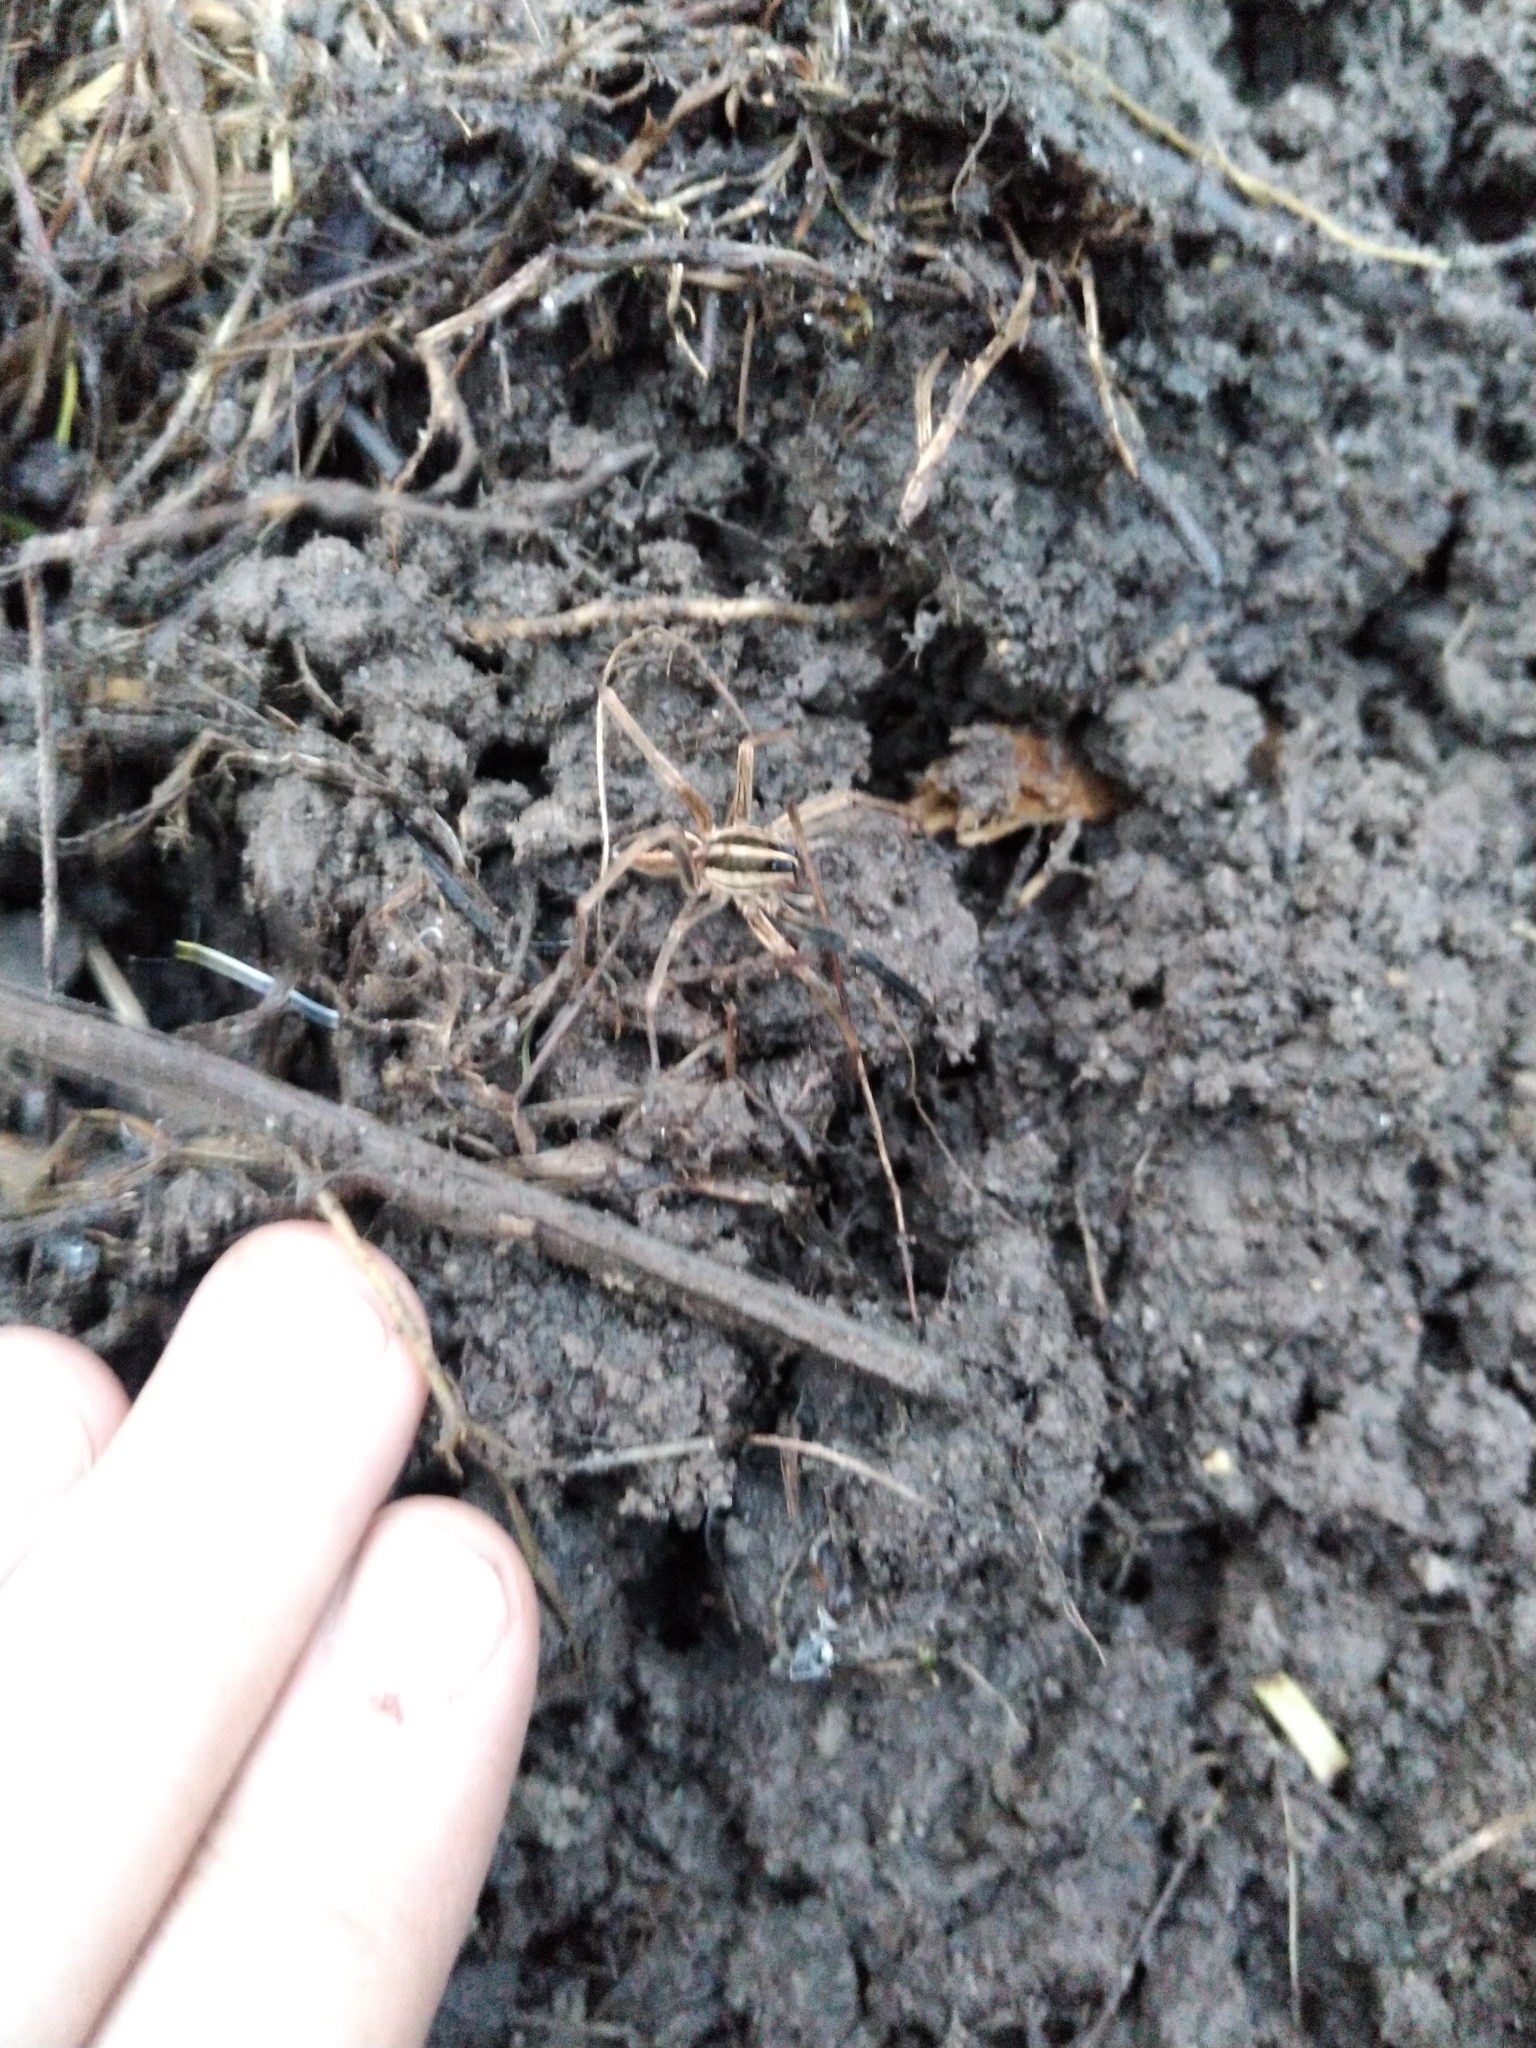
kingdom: Animalia
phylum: Arthropoda
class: Arachnida
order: Araneae
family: Lycosidae
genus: Rabidosa
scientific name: Rabidosa rabida
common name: Rabid wolf spider
